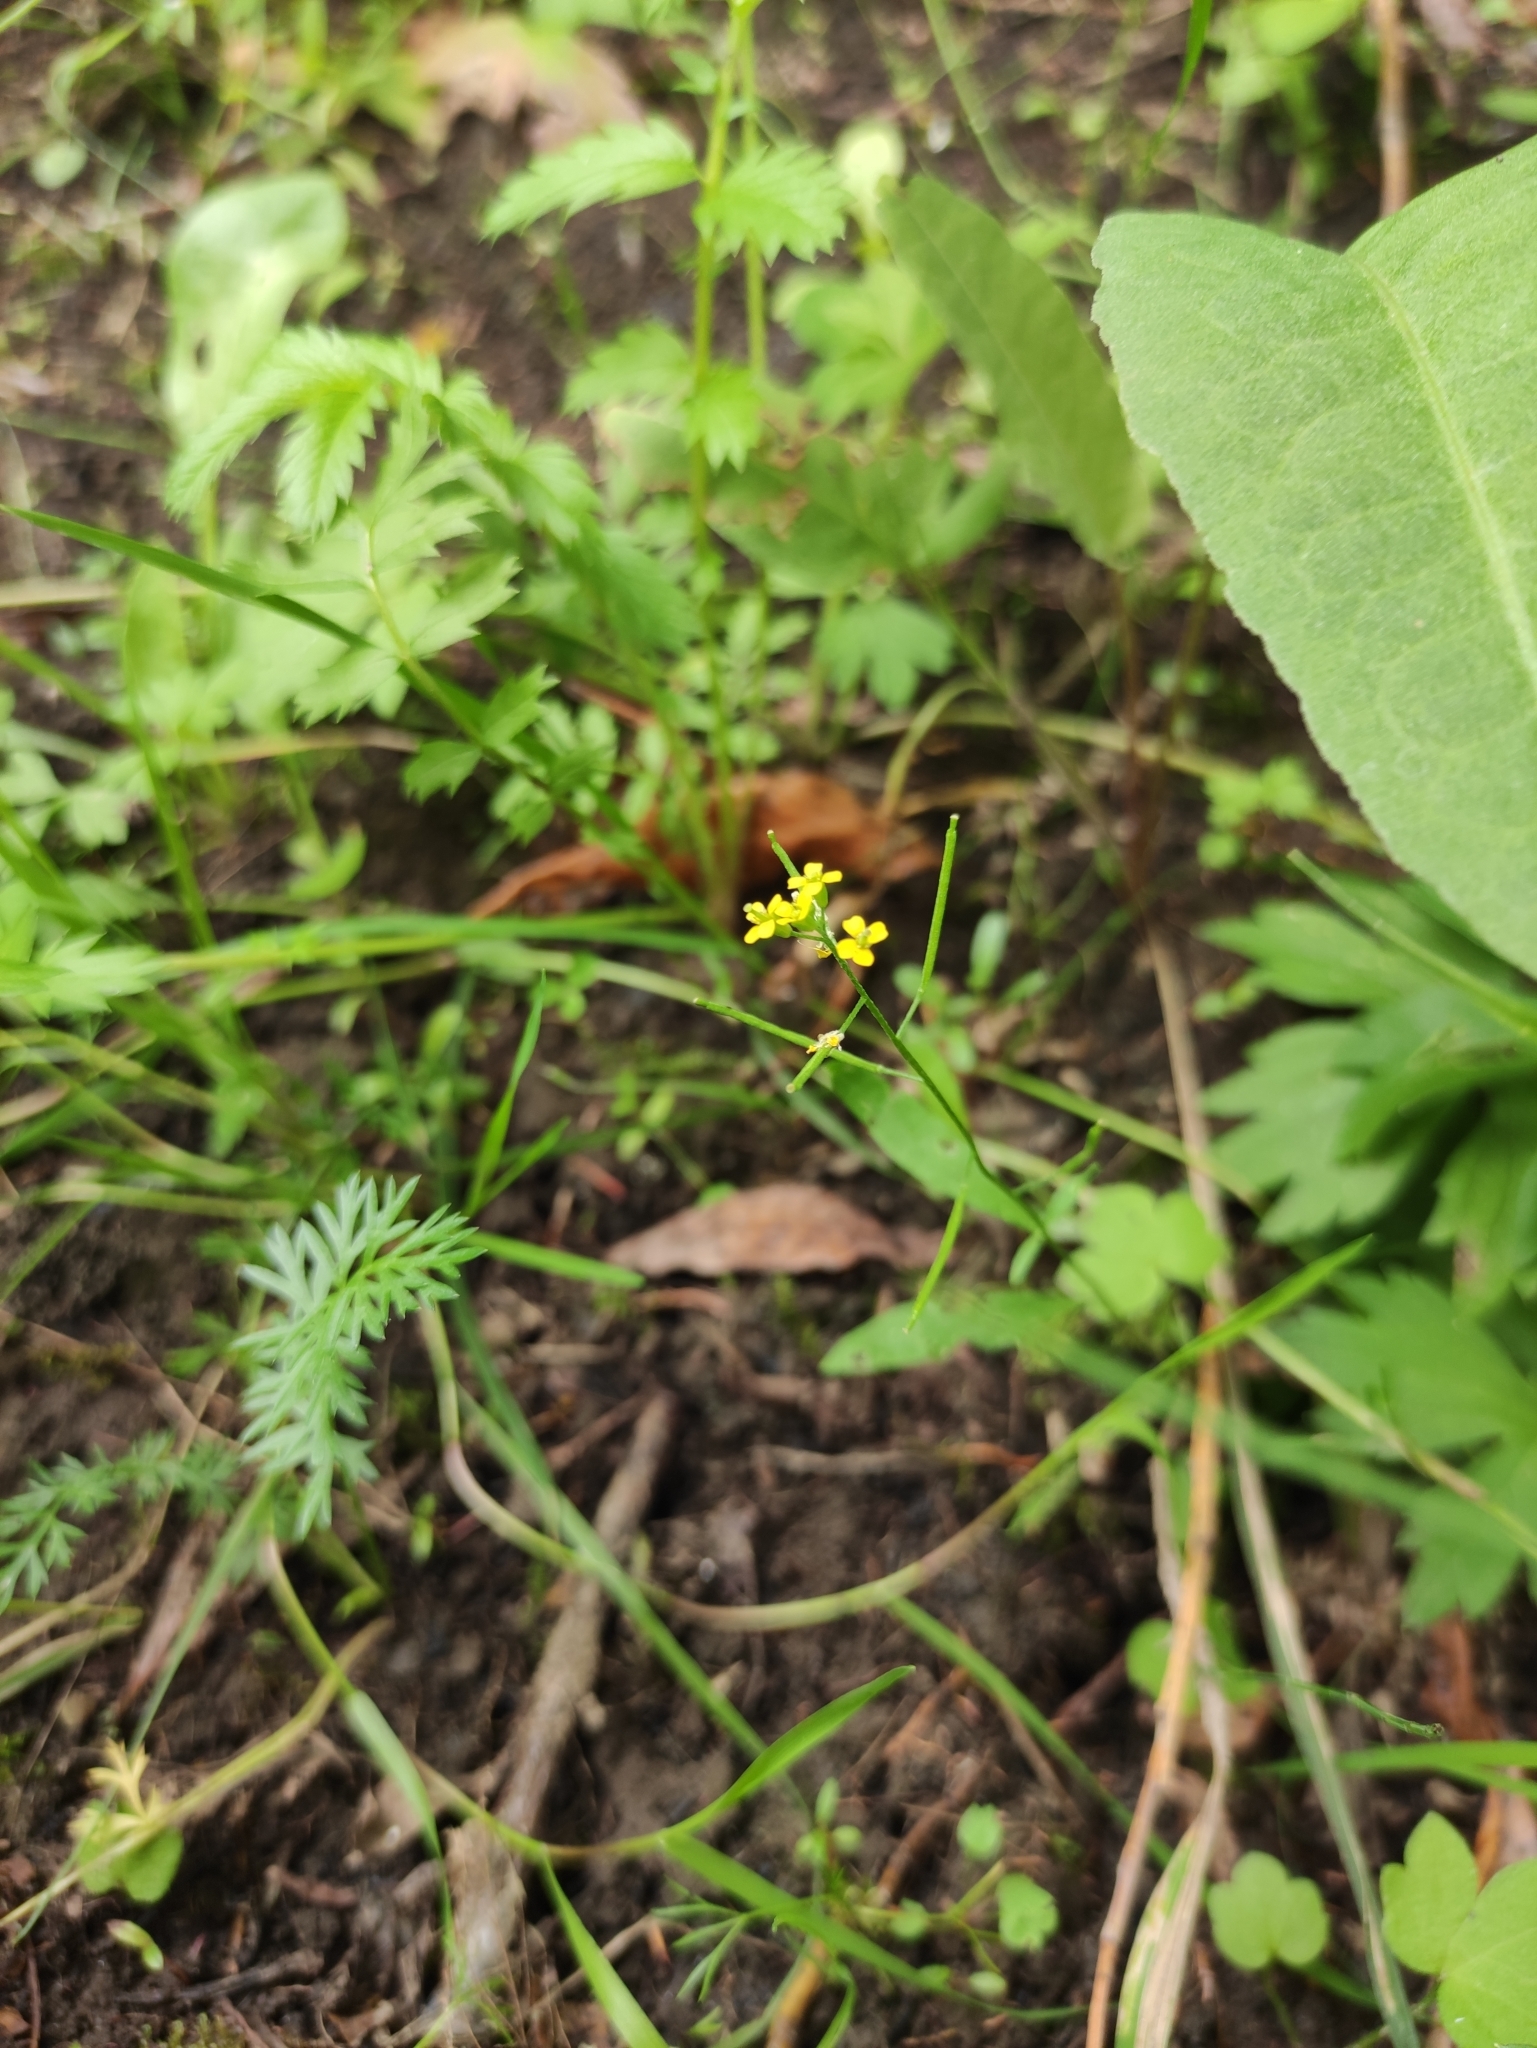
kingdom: Plantae
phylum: Tracheophyta
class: Magnoliopsida
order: Brassicales
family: Brassicaceae
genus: Erysimum
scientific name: Erysimum cheiranthoides
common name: Treacle mustard
